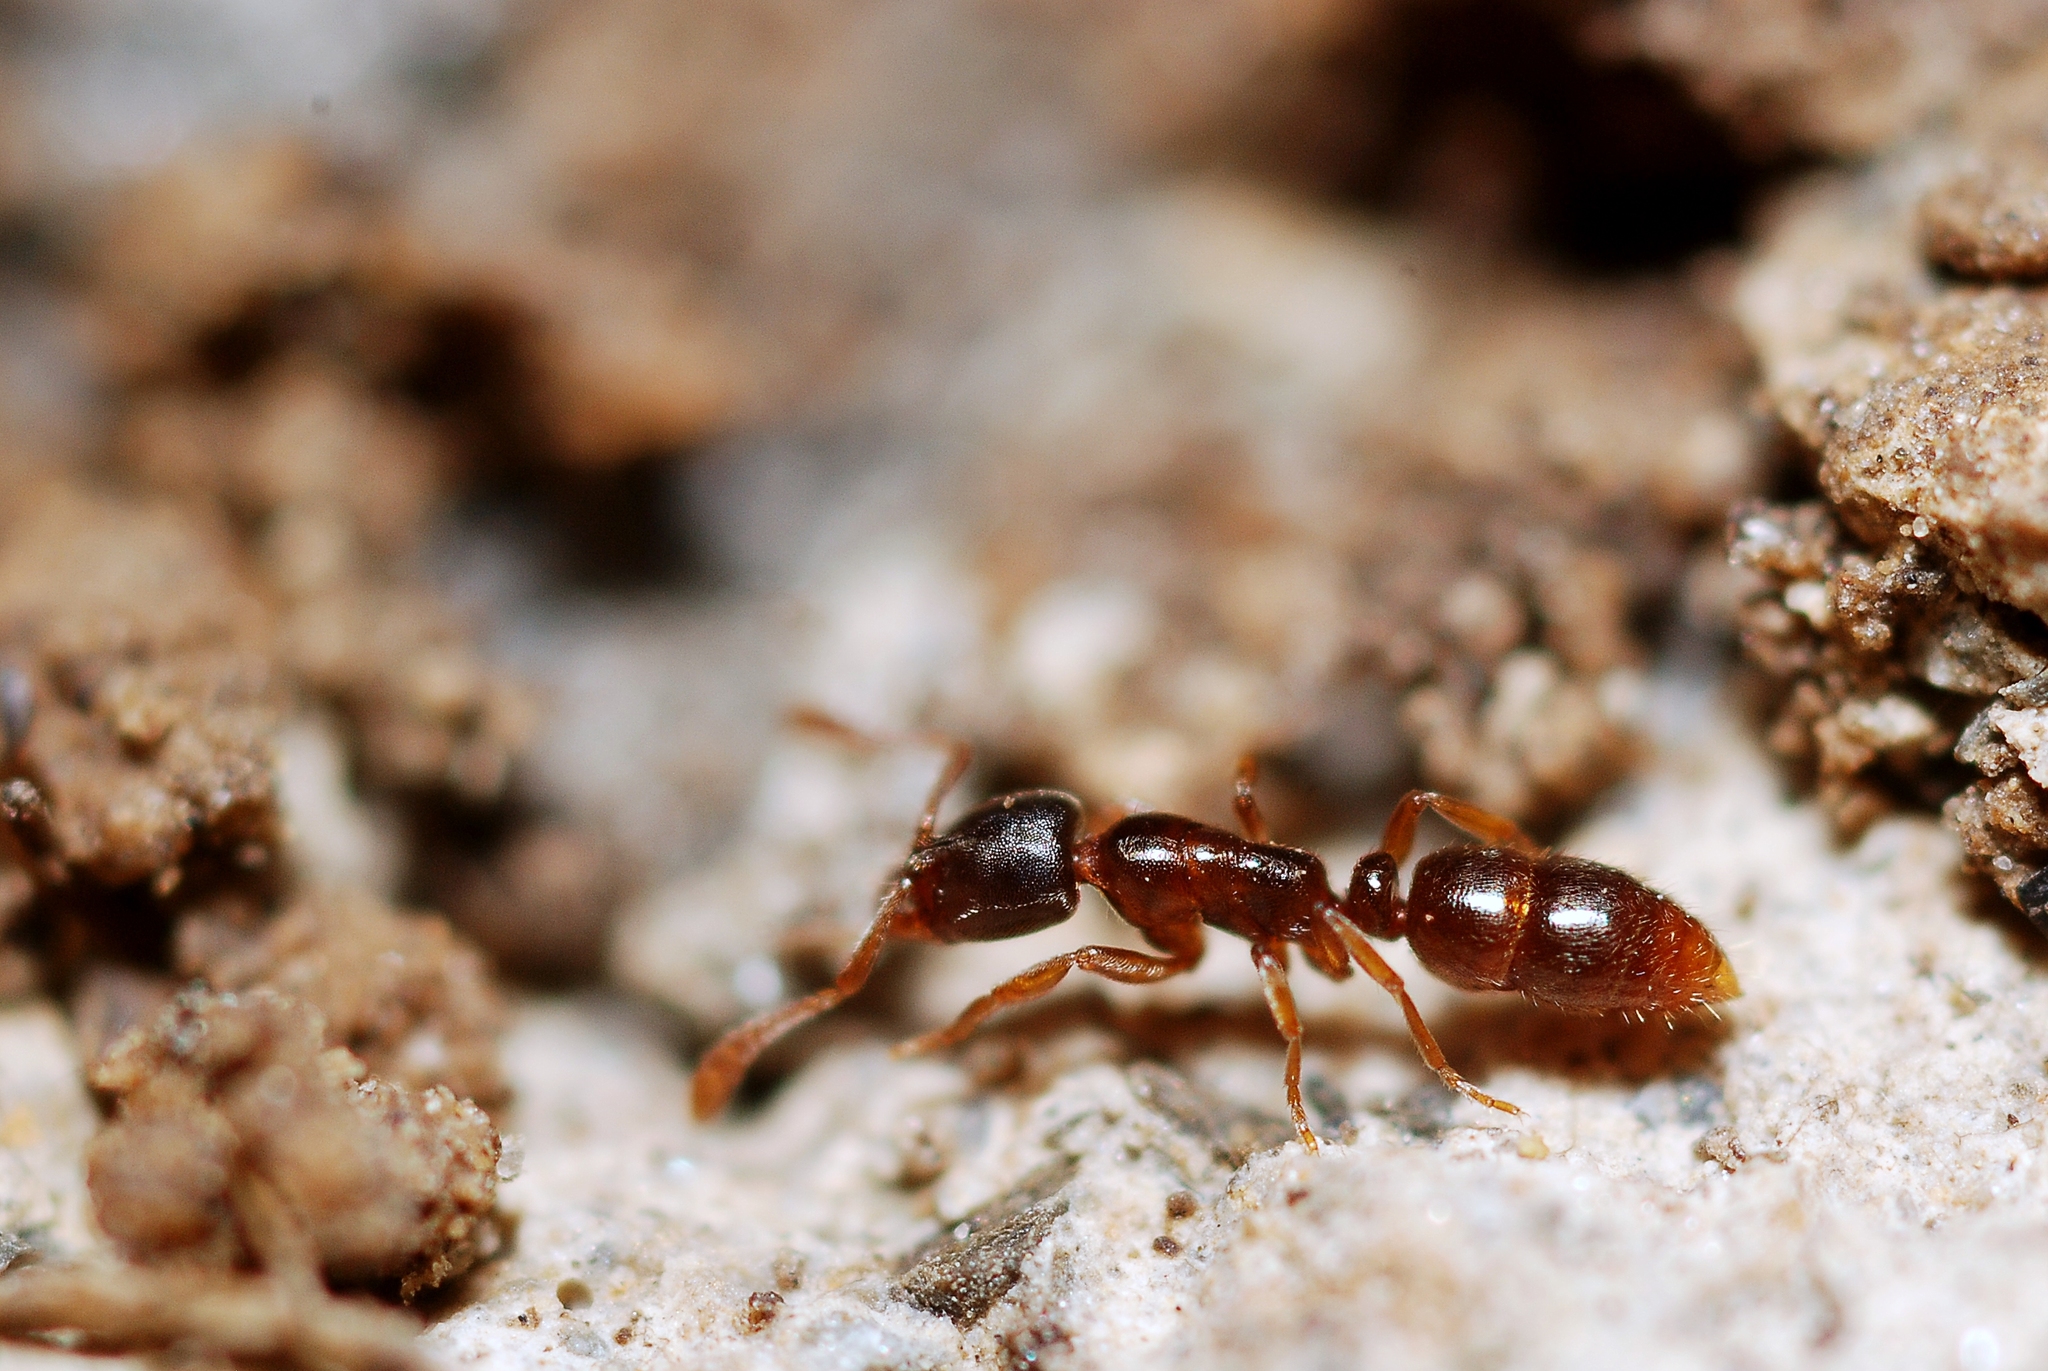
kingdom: Animalia
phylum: Arthropoda
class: Insecta
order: Hymenoptera
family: Formicidae
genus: Ponera
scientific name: Ponera coarctata
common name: Indolent ant
